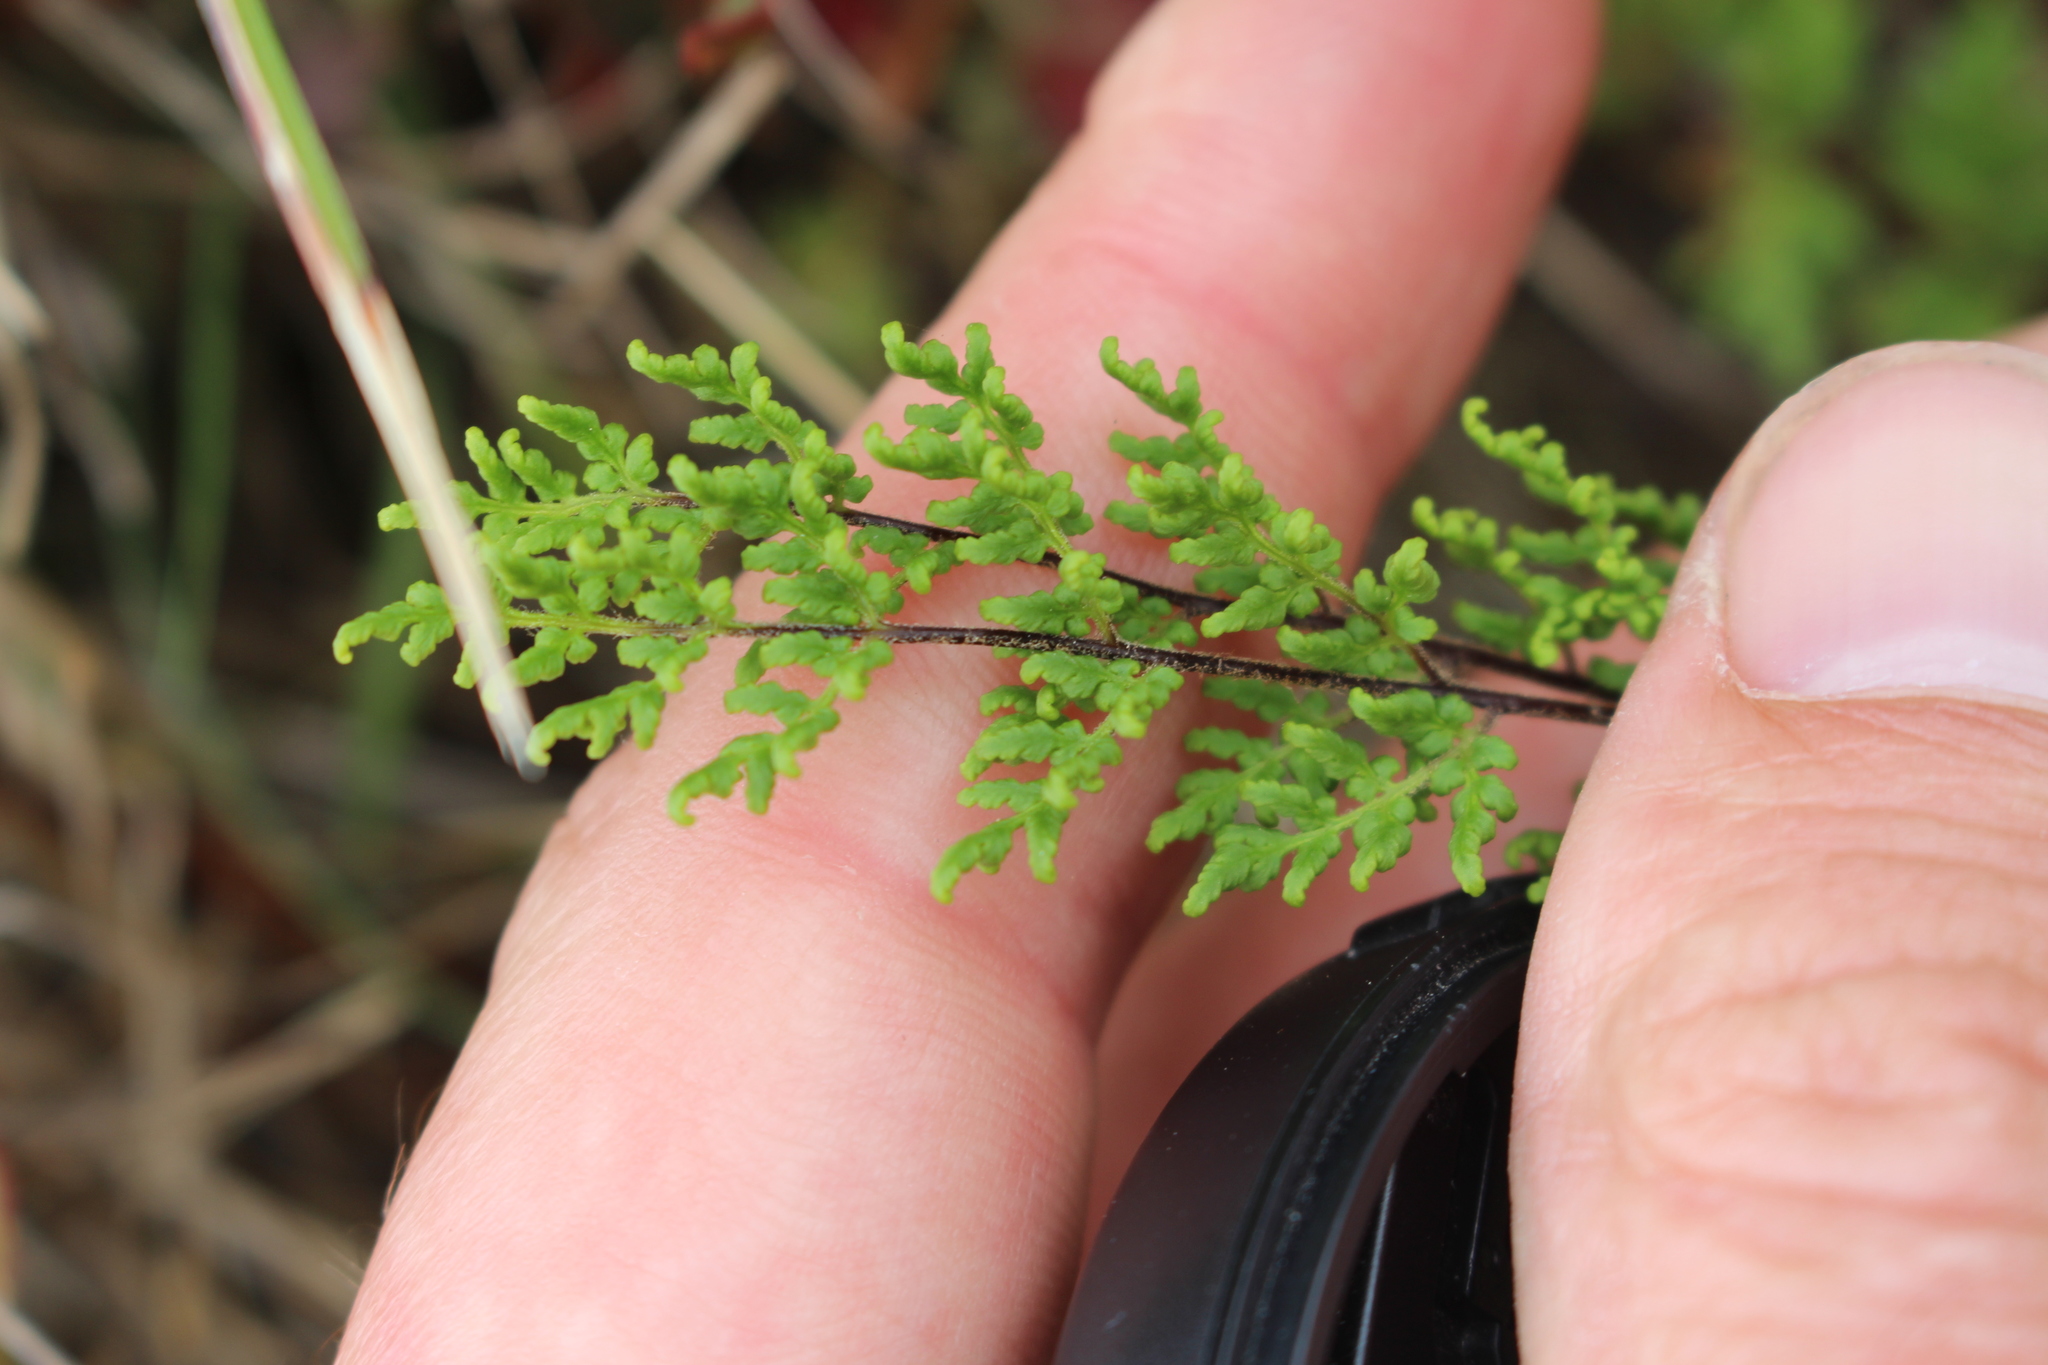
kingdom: Plantae
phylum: Tracheophyta
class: Polypodiopsida
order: Polypodiales
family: Pteridaceae
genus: Cheilanthes
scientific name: Cheilanthes distans
